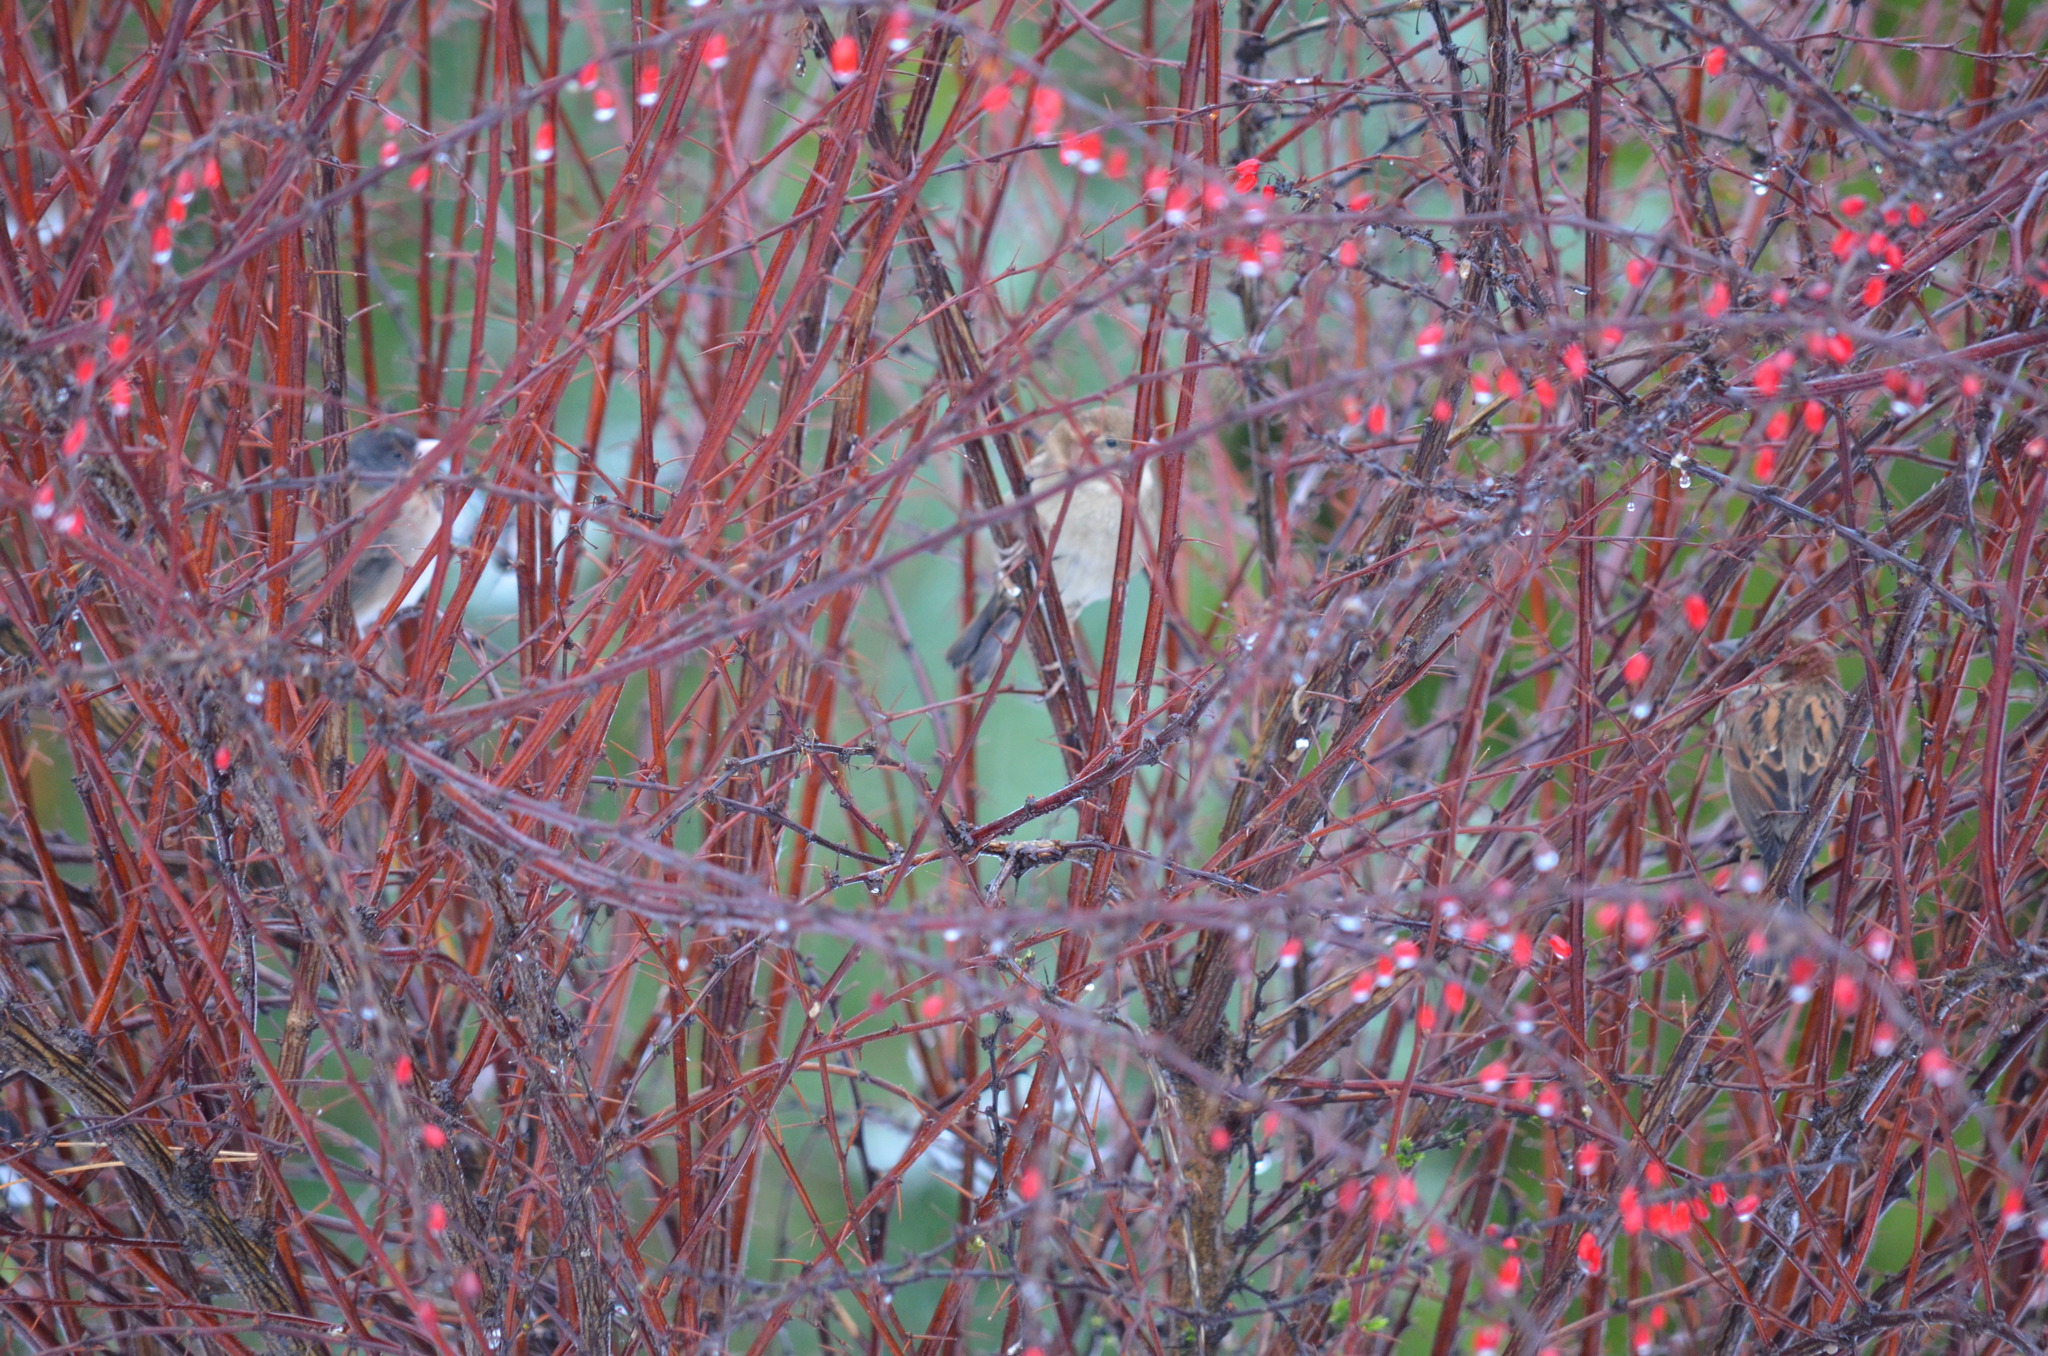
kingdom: Animalia
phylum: Chordata
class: Aves
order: Passeriformes
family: Passeridae
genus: Passer
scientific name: Passer domesticus
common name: House sparrow
